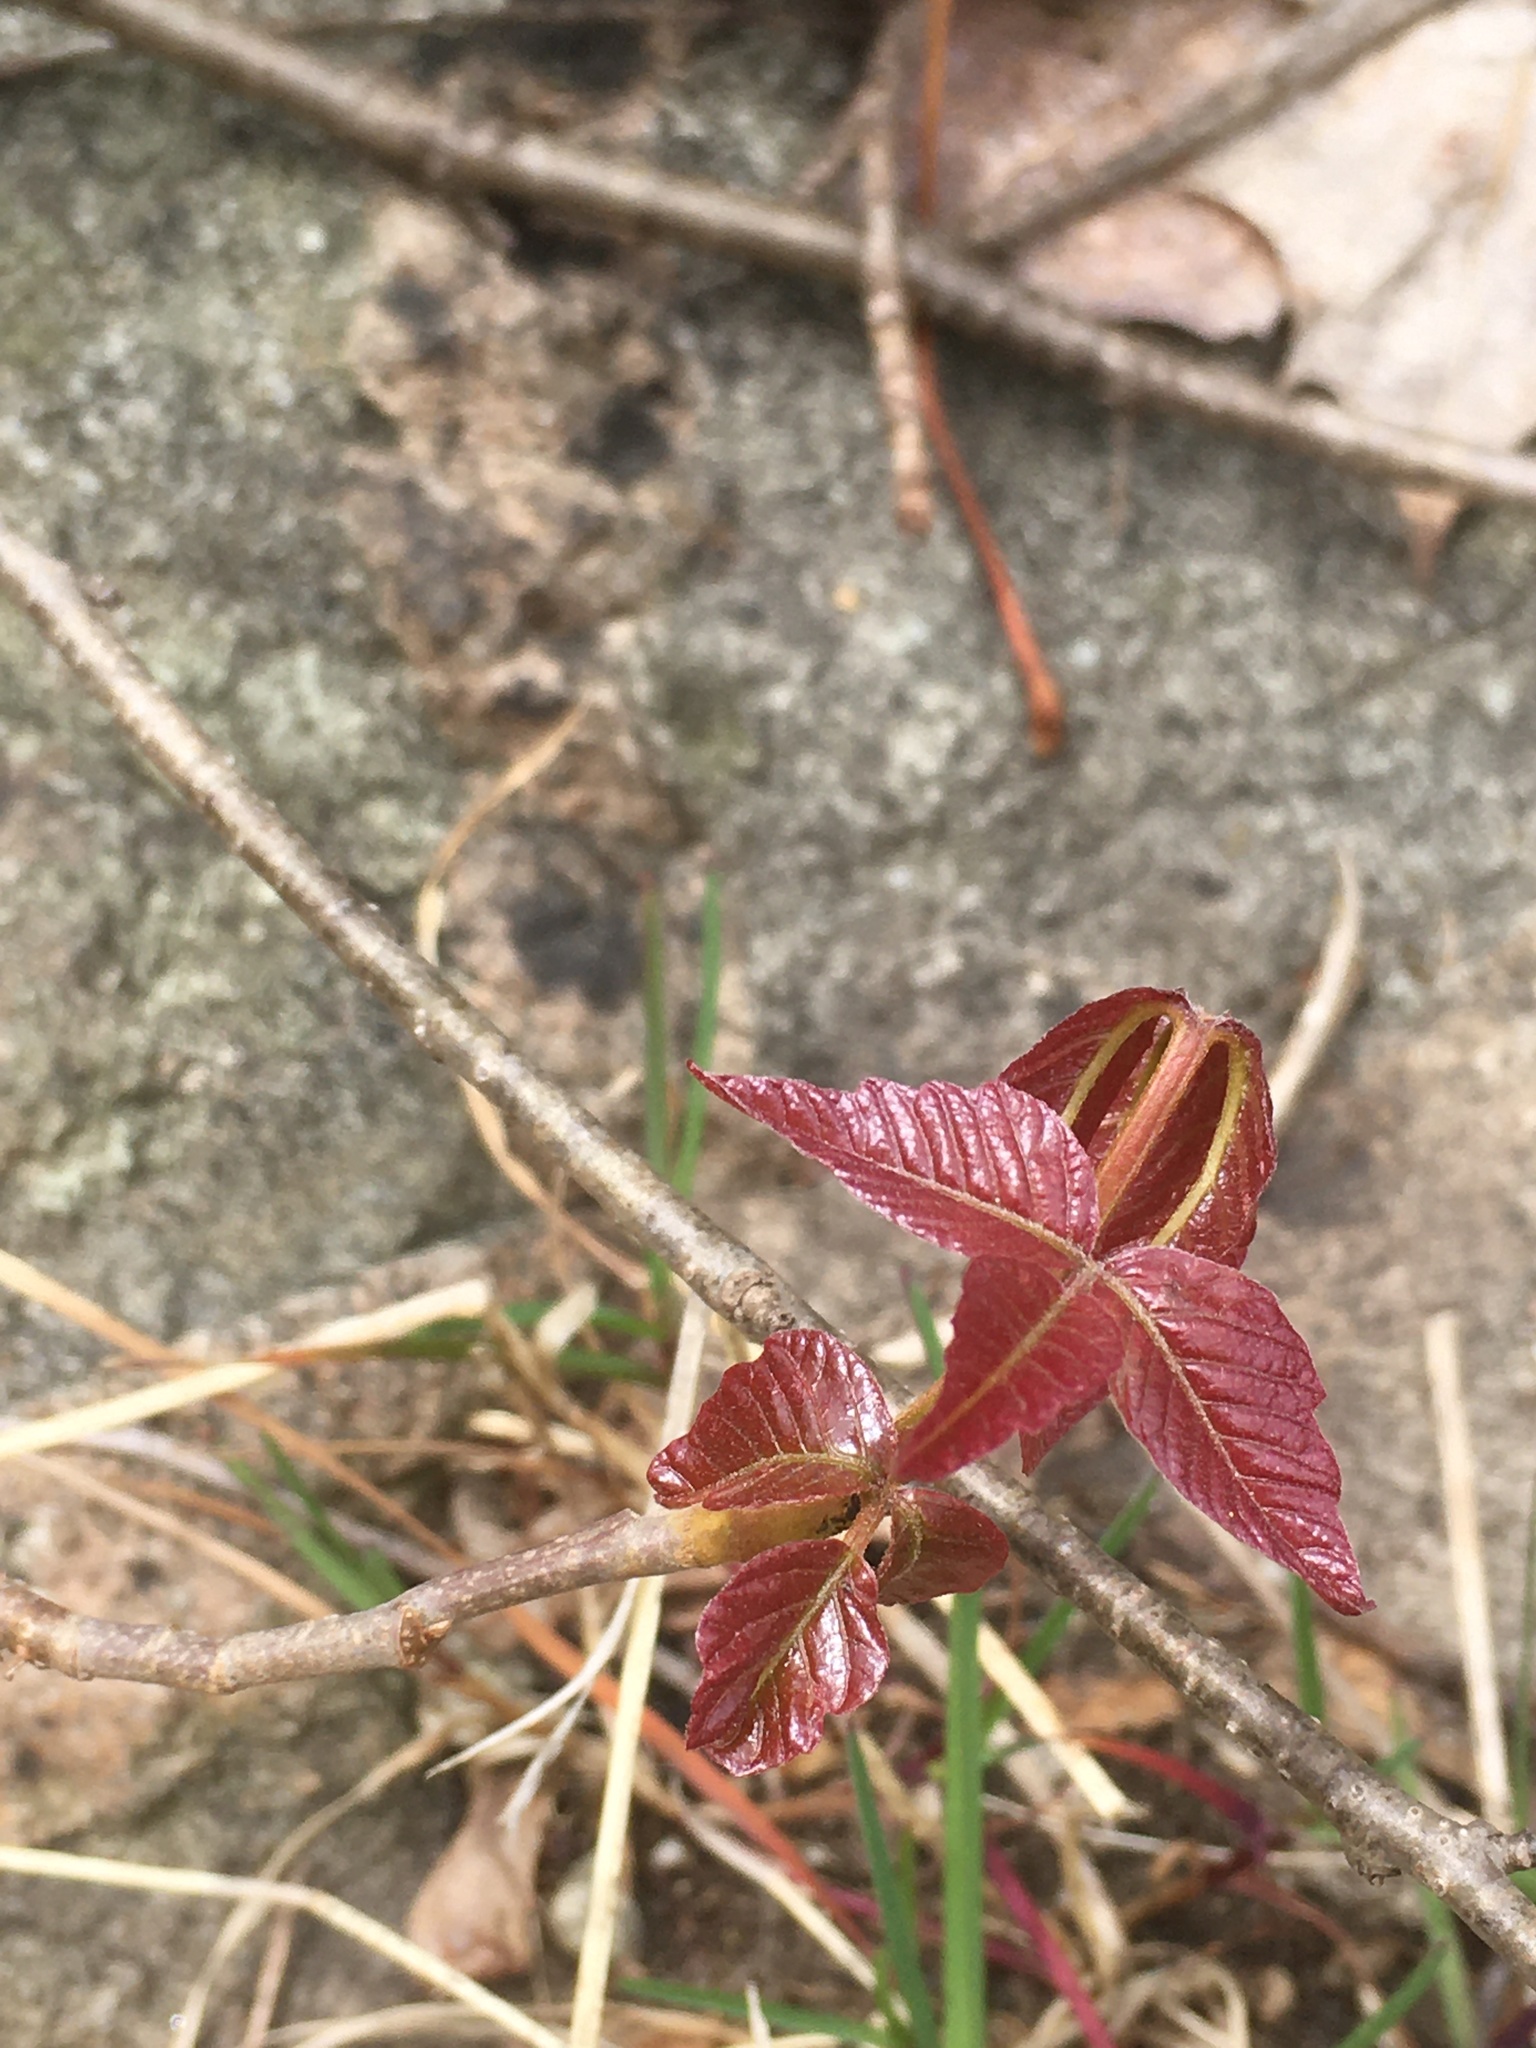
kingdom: Plantae
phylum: Tracheophyta
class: Magnoliopsida
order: Sapindales
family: Anacardiaceae
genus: Toxicodendron
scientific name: Toxicodendron radicans
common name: Poison ivy
